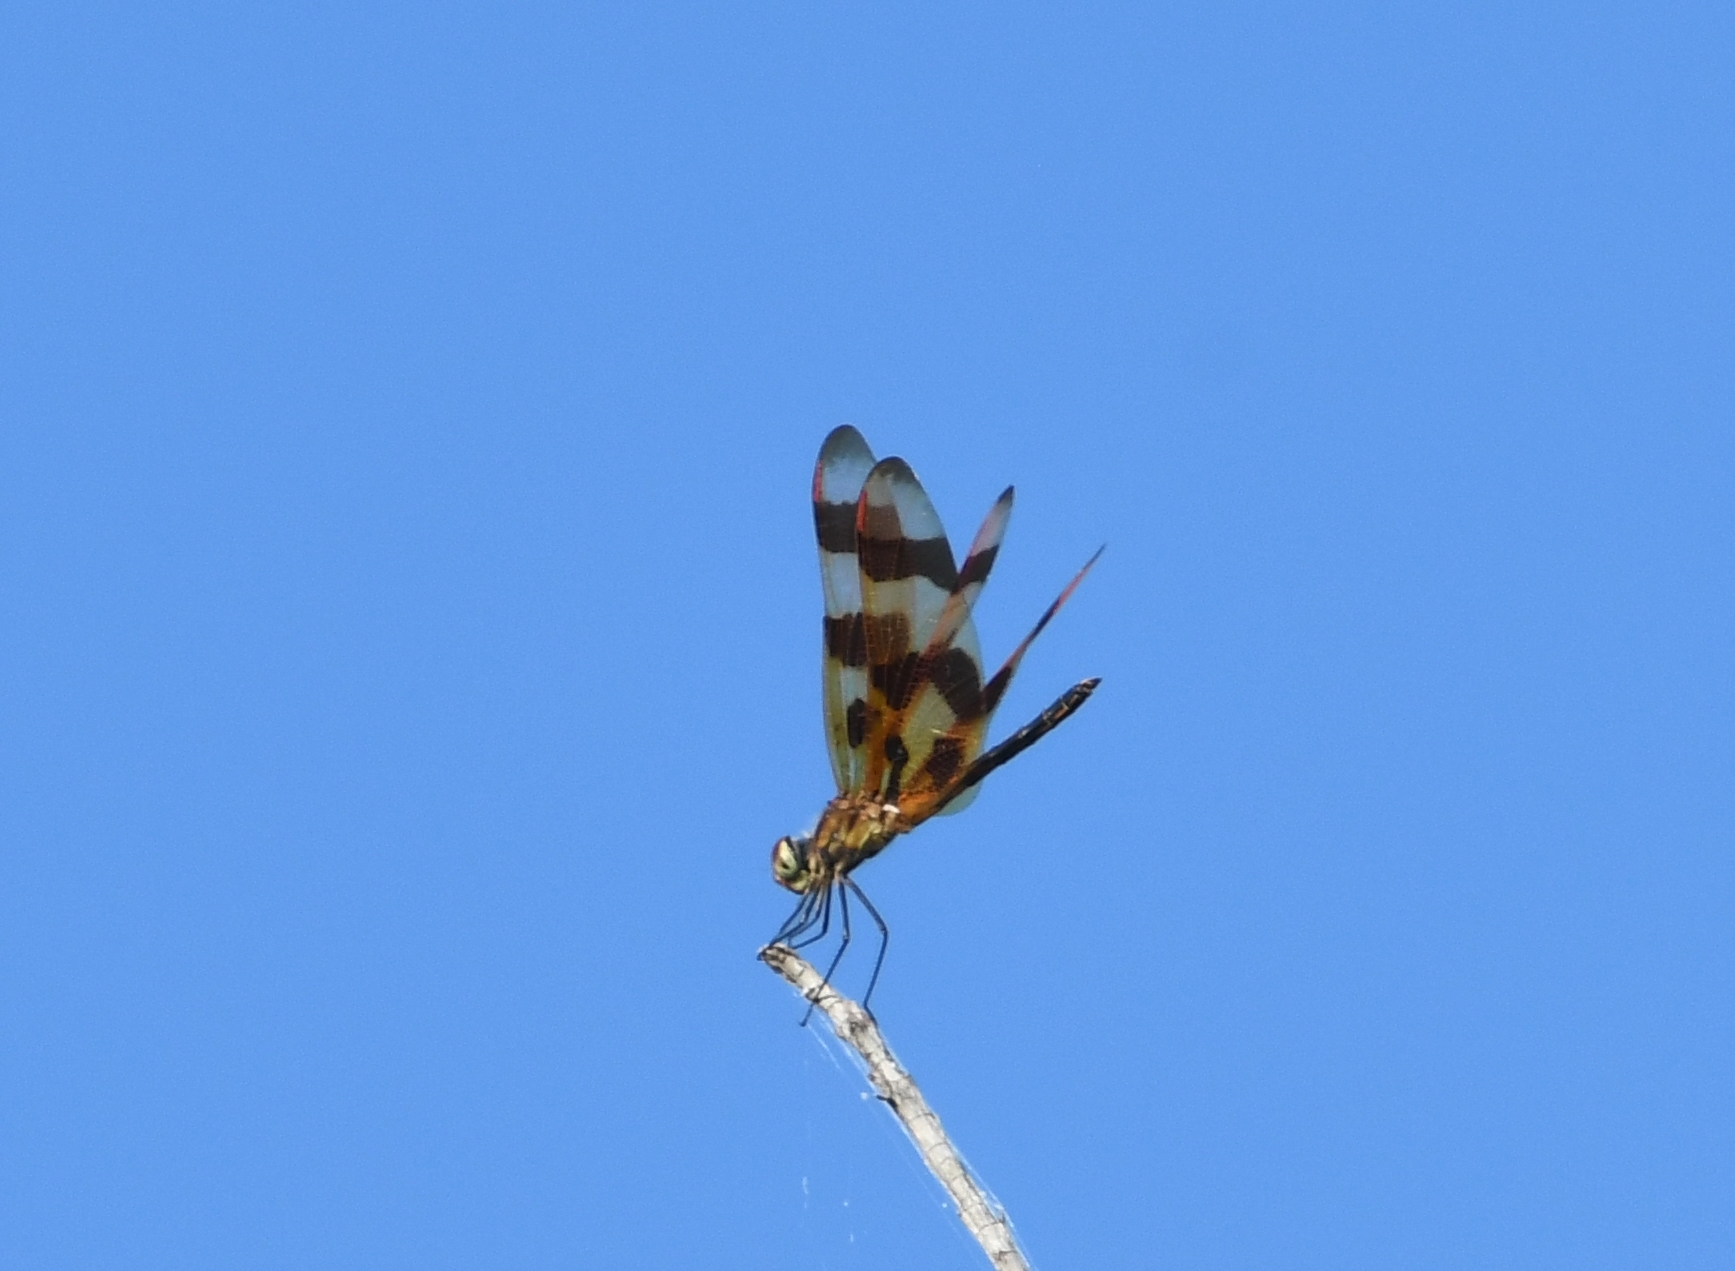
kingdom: Animalia
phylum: Arthropoda
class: Insecta
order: Odonata
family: Libellulidae
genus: Celithemis
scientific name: Celithemis eponina
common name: Halloween pennant
